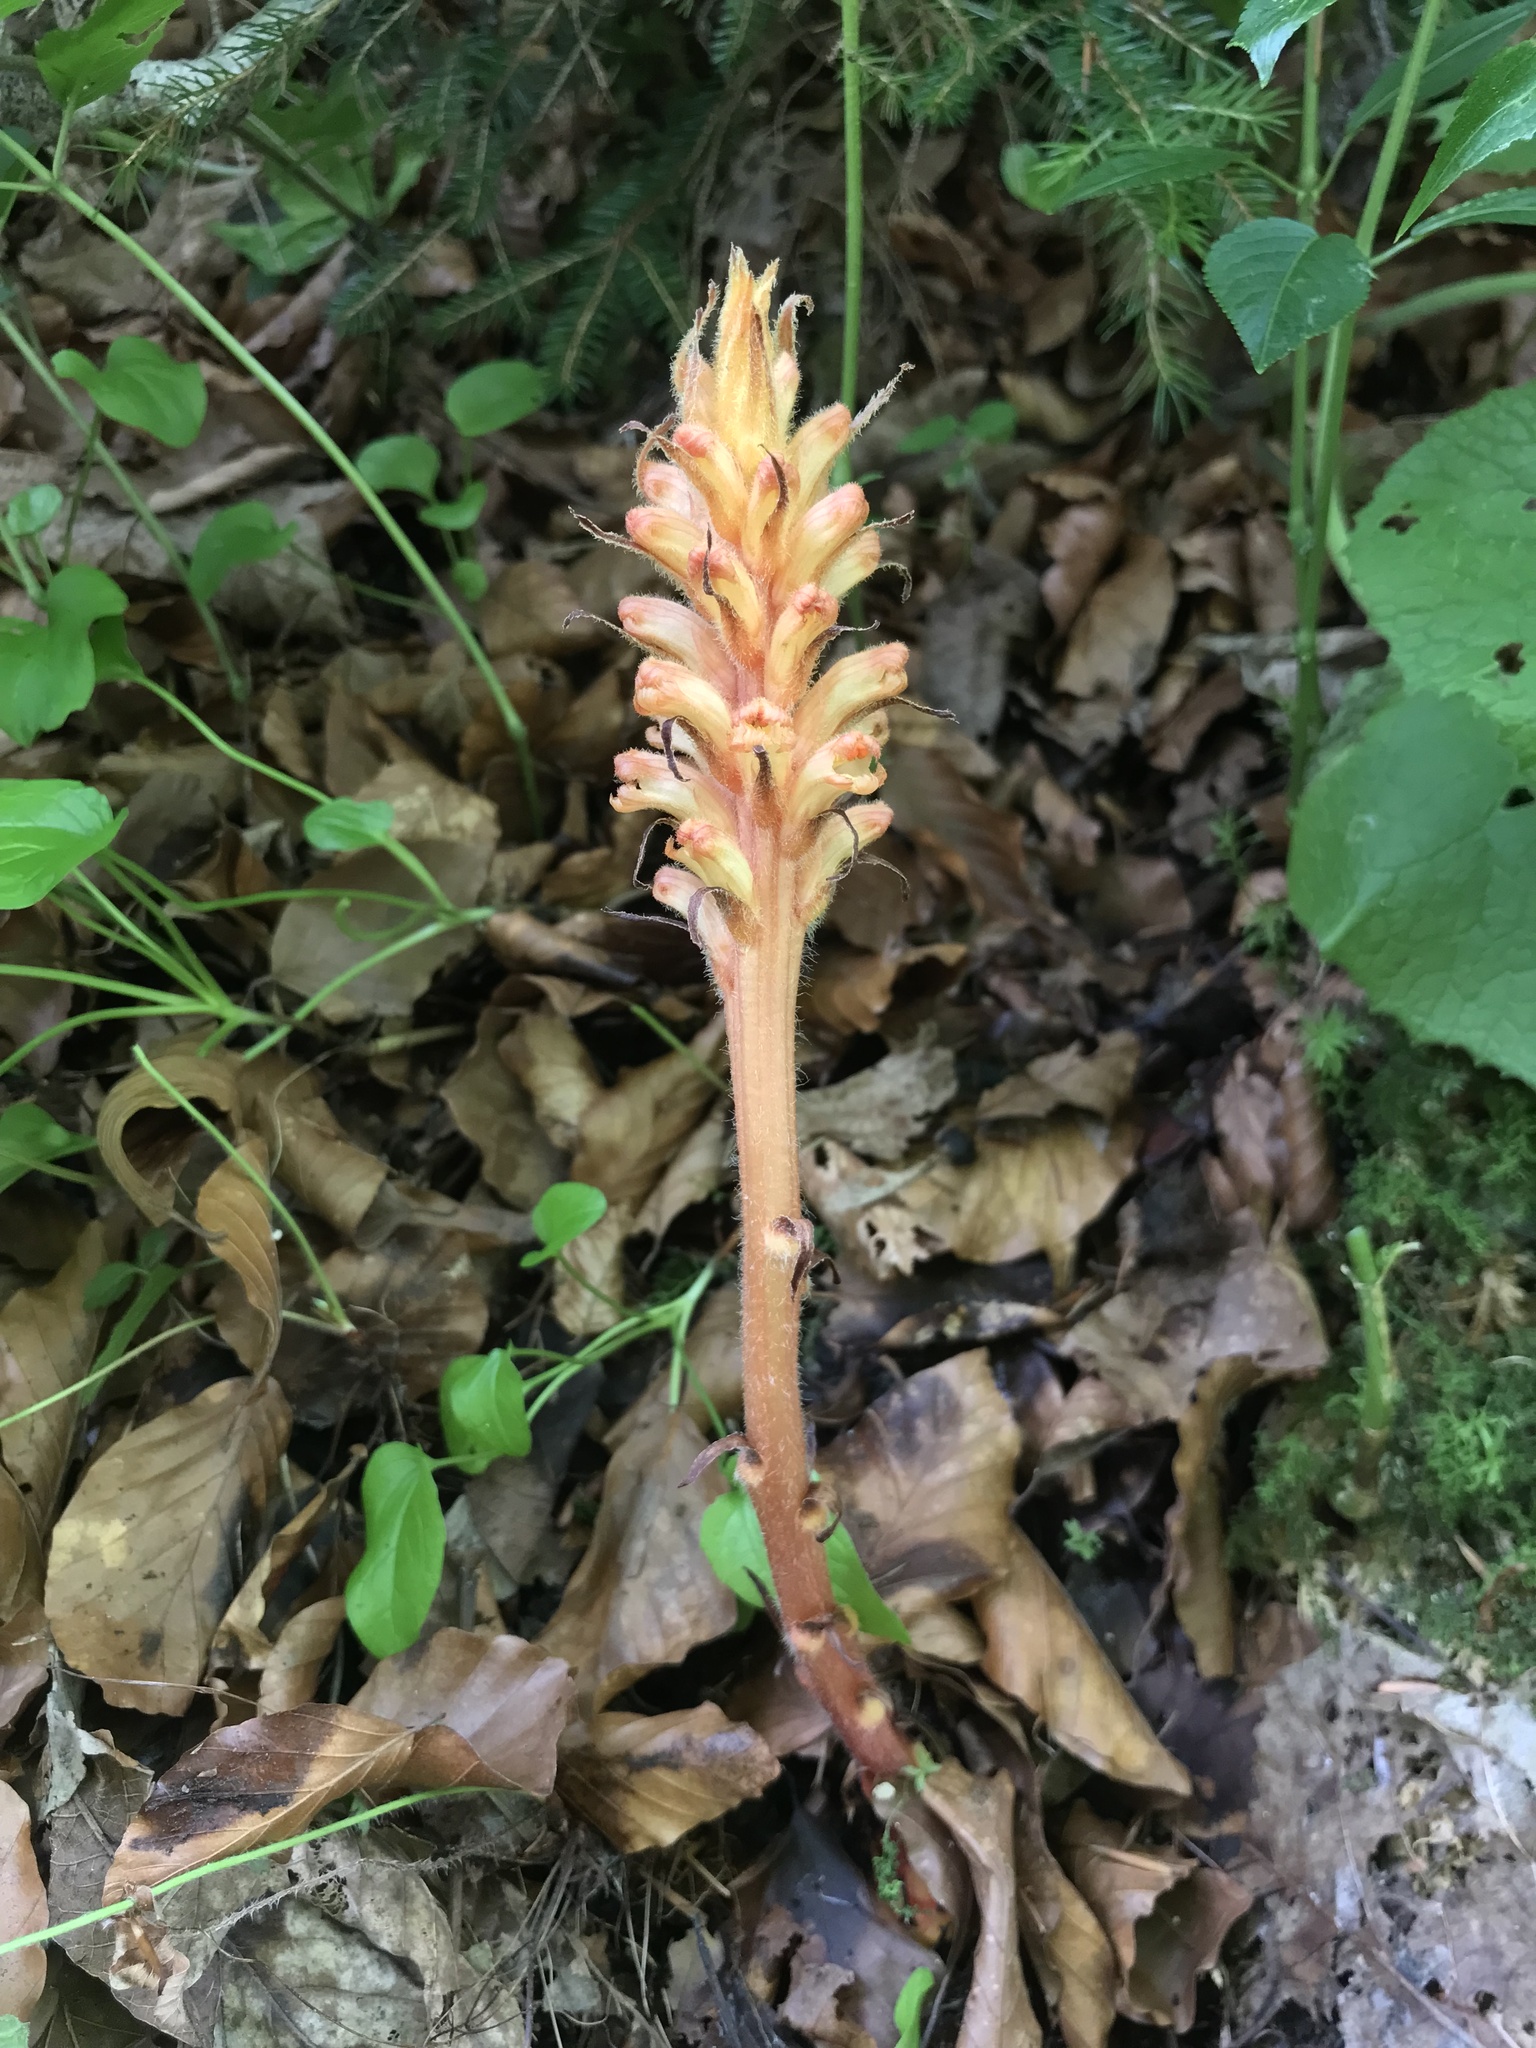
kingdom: Plantae
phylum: Tracheophyta
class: Magnoliopsida
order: Lamiales
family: Orobanchaceae
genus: Orobanche
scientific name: Orobanche flava
